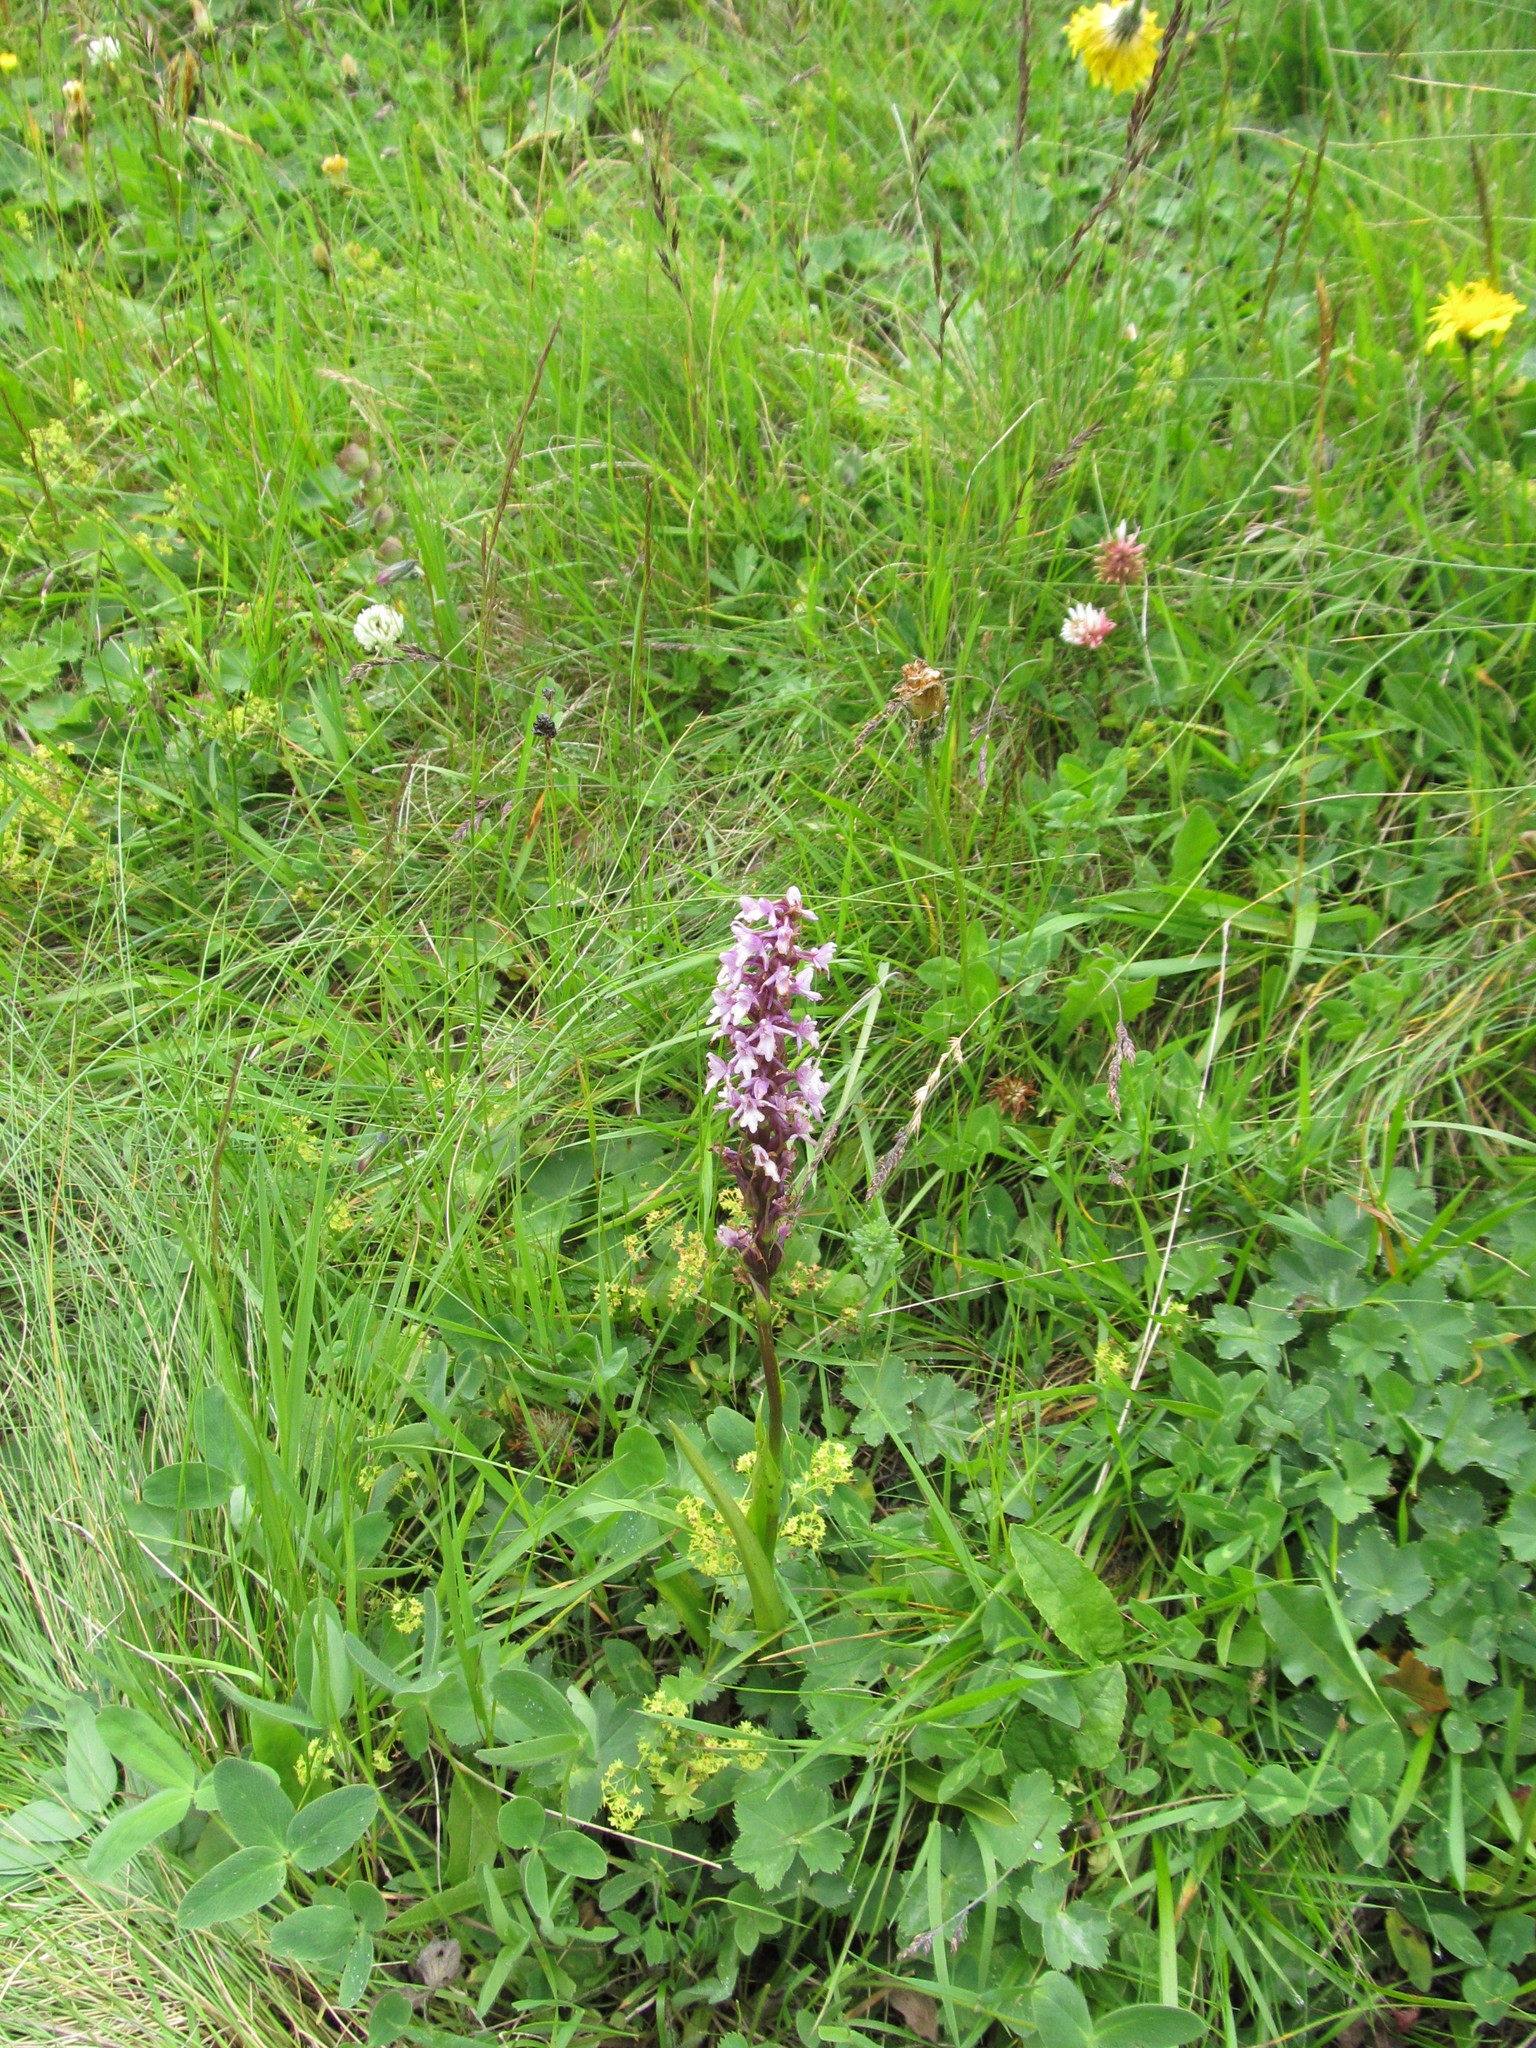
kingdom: Plantae
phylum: Tracheophyta
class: Liliopsida
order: Asparagales
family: Orchidaceae
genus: Gymnadenia
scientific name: Gymnadenia conopsea
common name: Fragrant orchid
